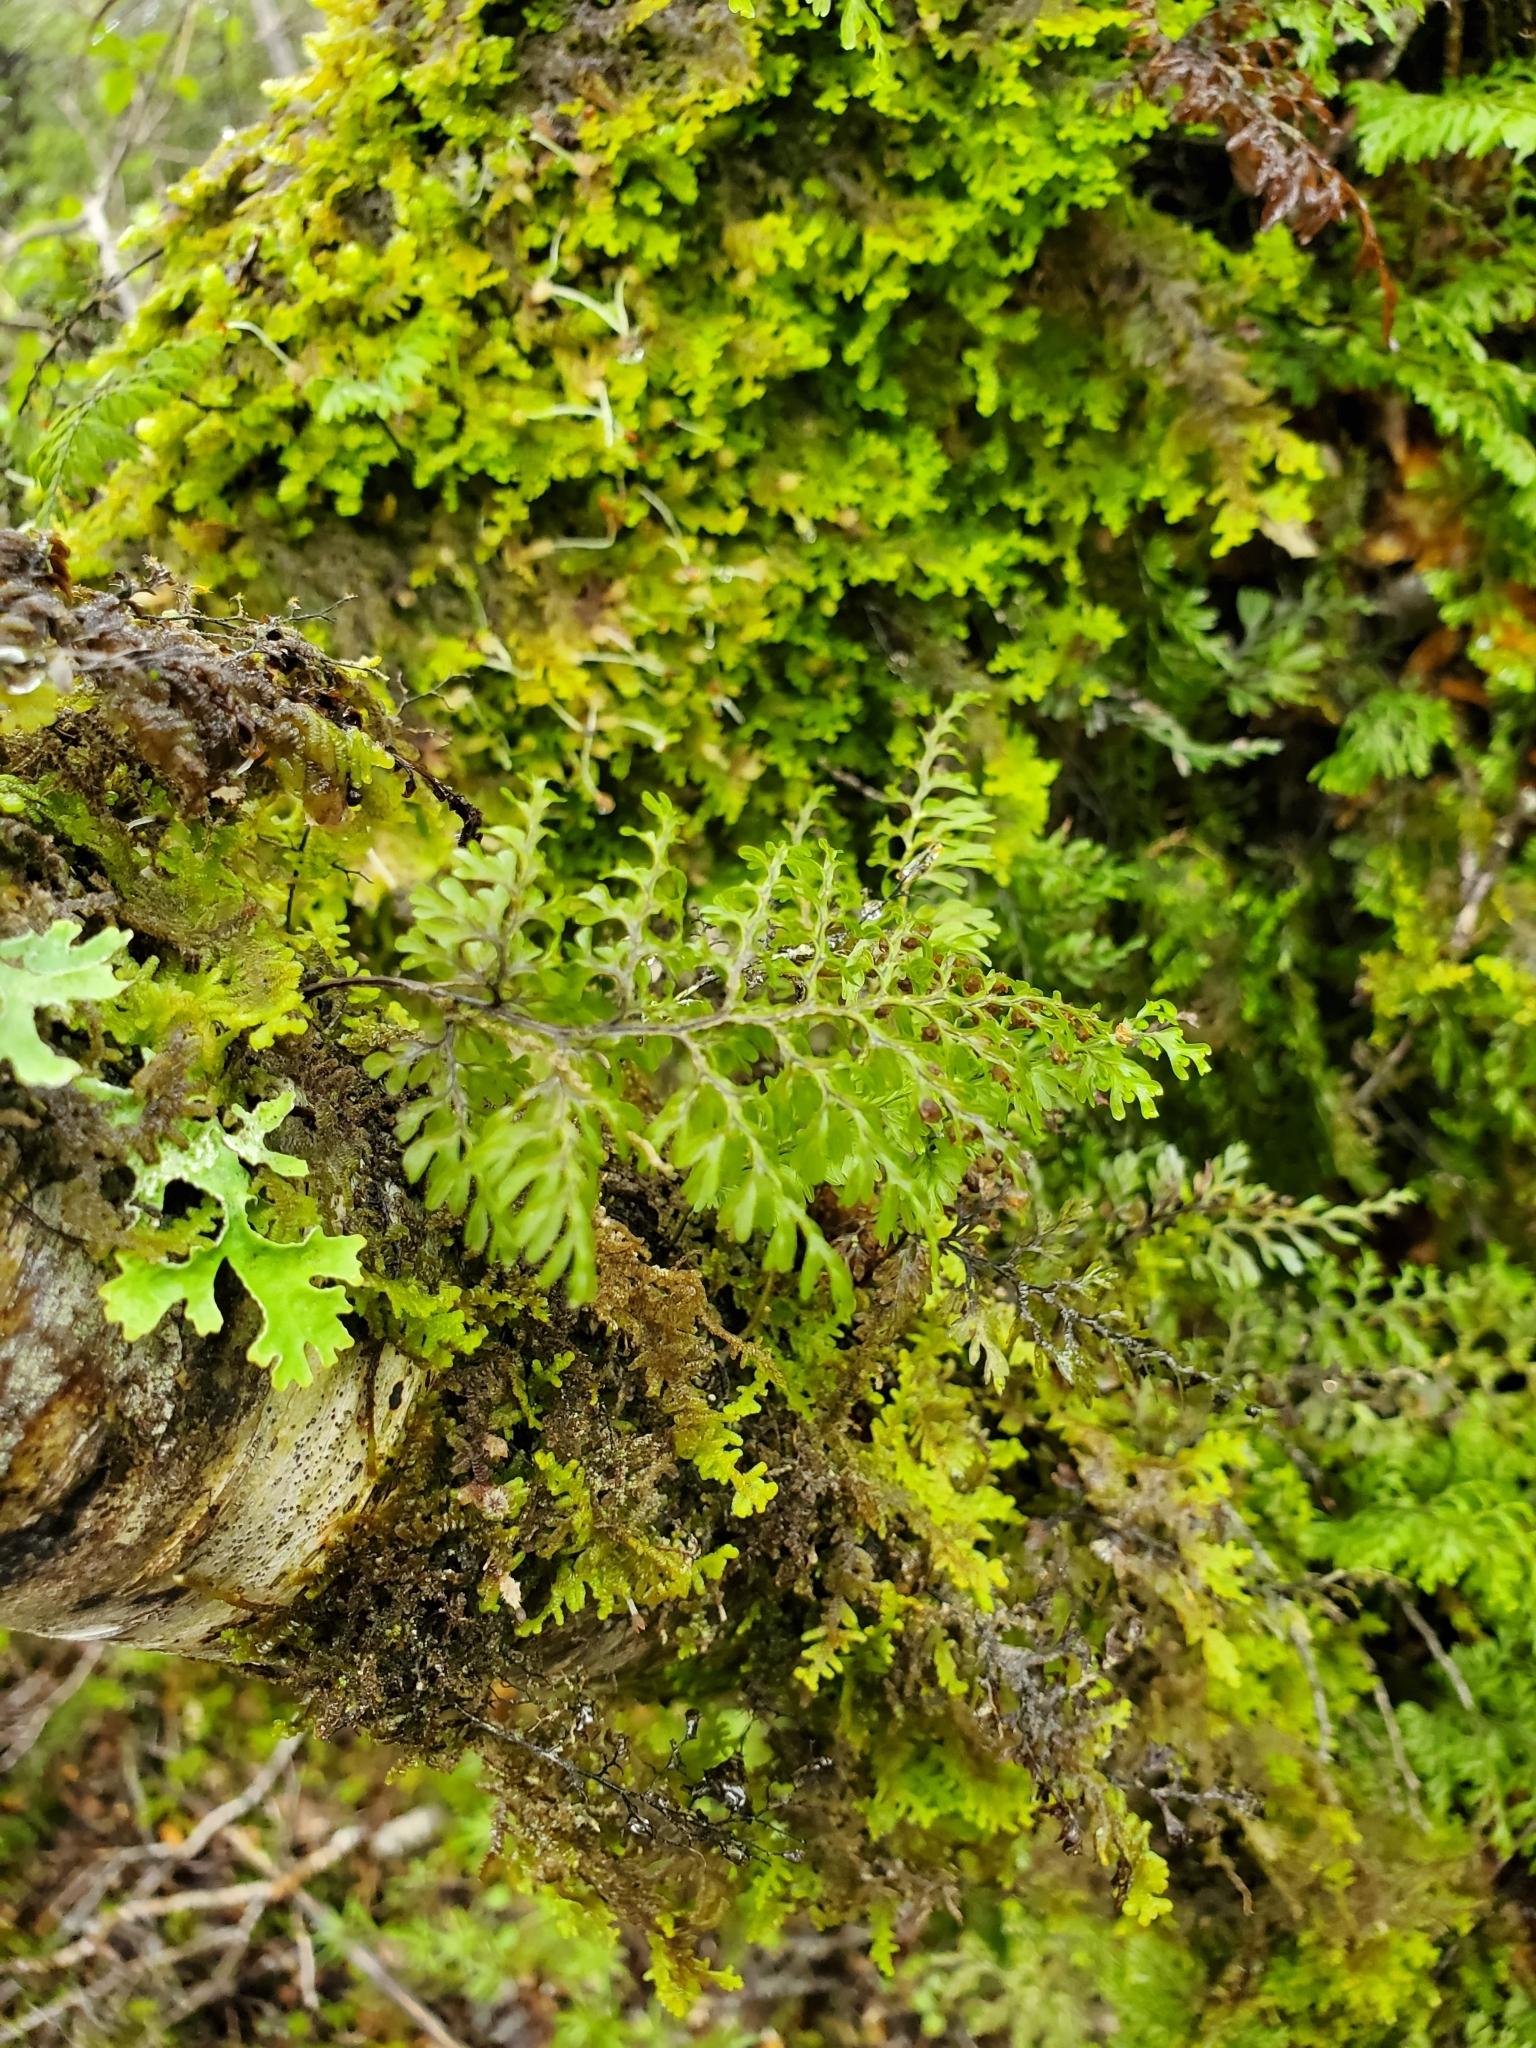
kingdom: Plantae
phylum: Tracheophyta
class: Polypodiopsida
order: Hymenophyllales
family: Hymenophyllaceae
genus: Hymenophyllum
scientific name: Hymenophyllum sanguinolentum
